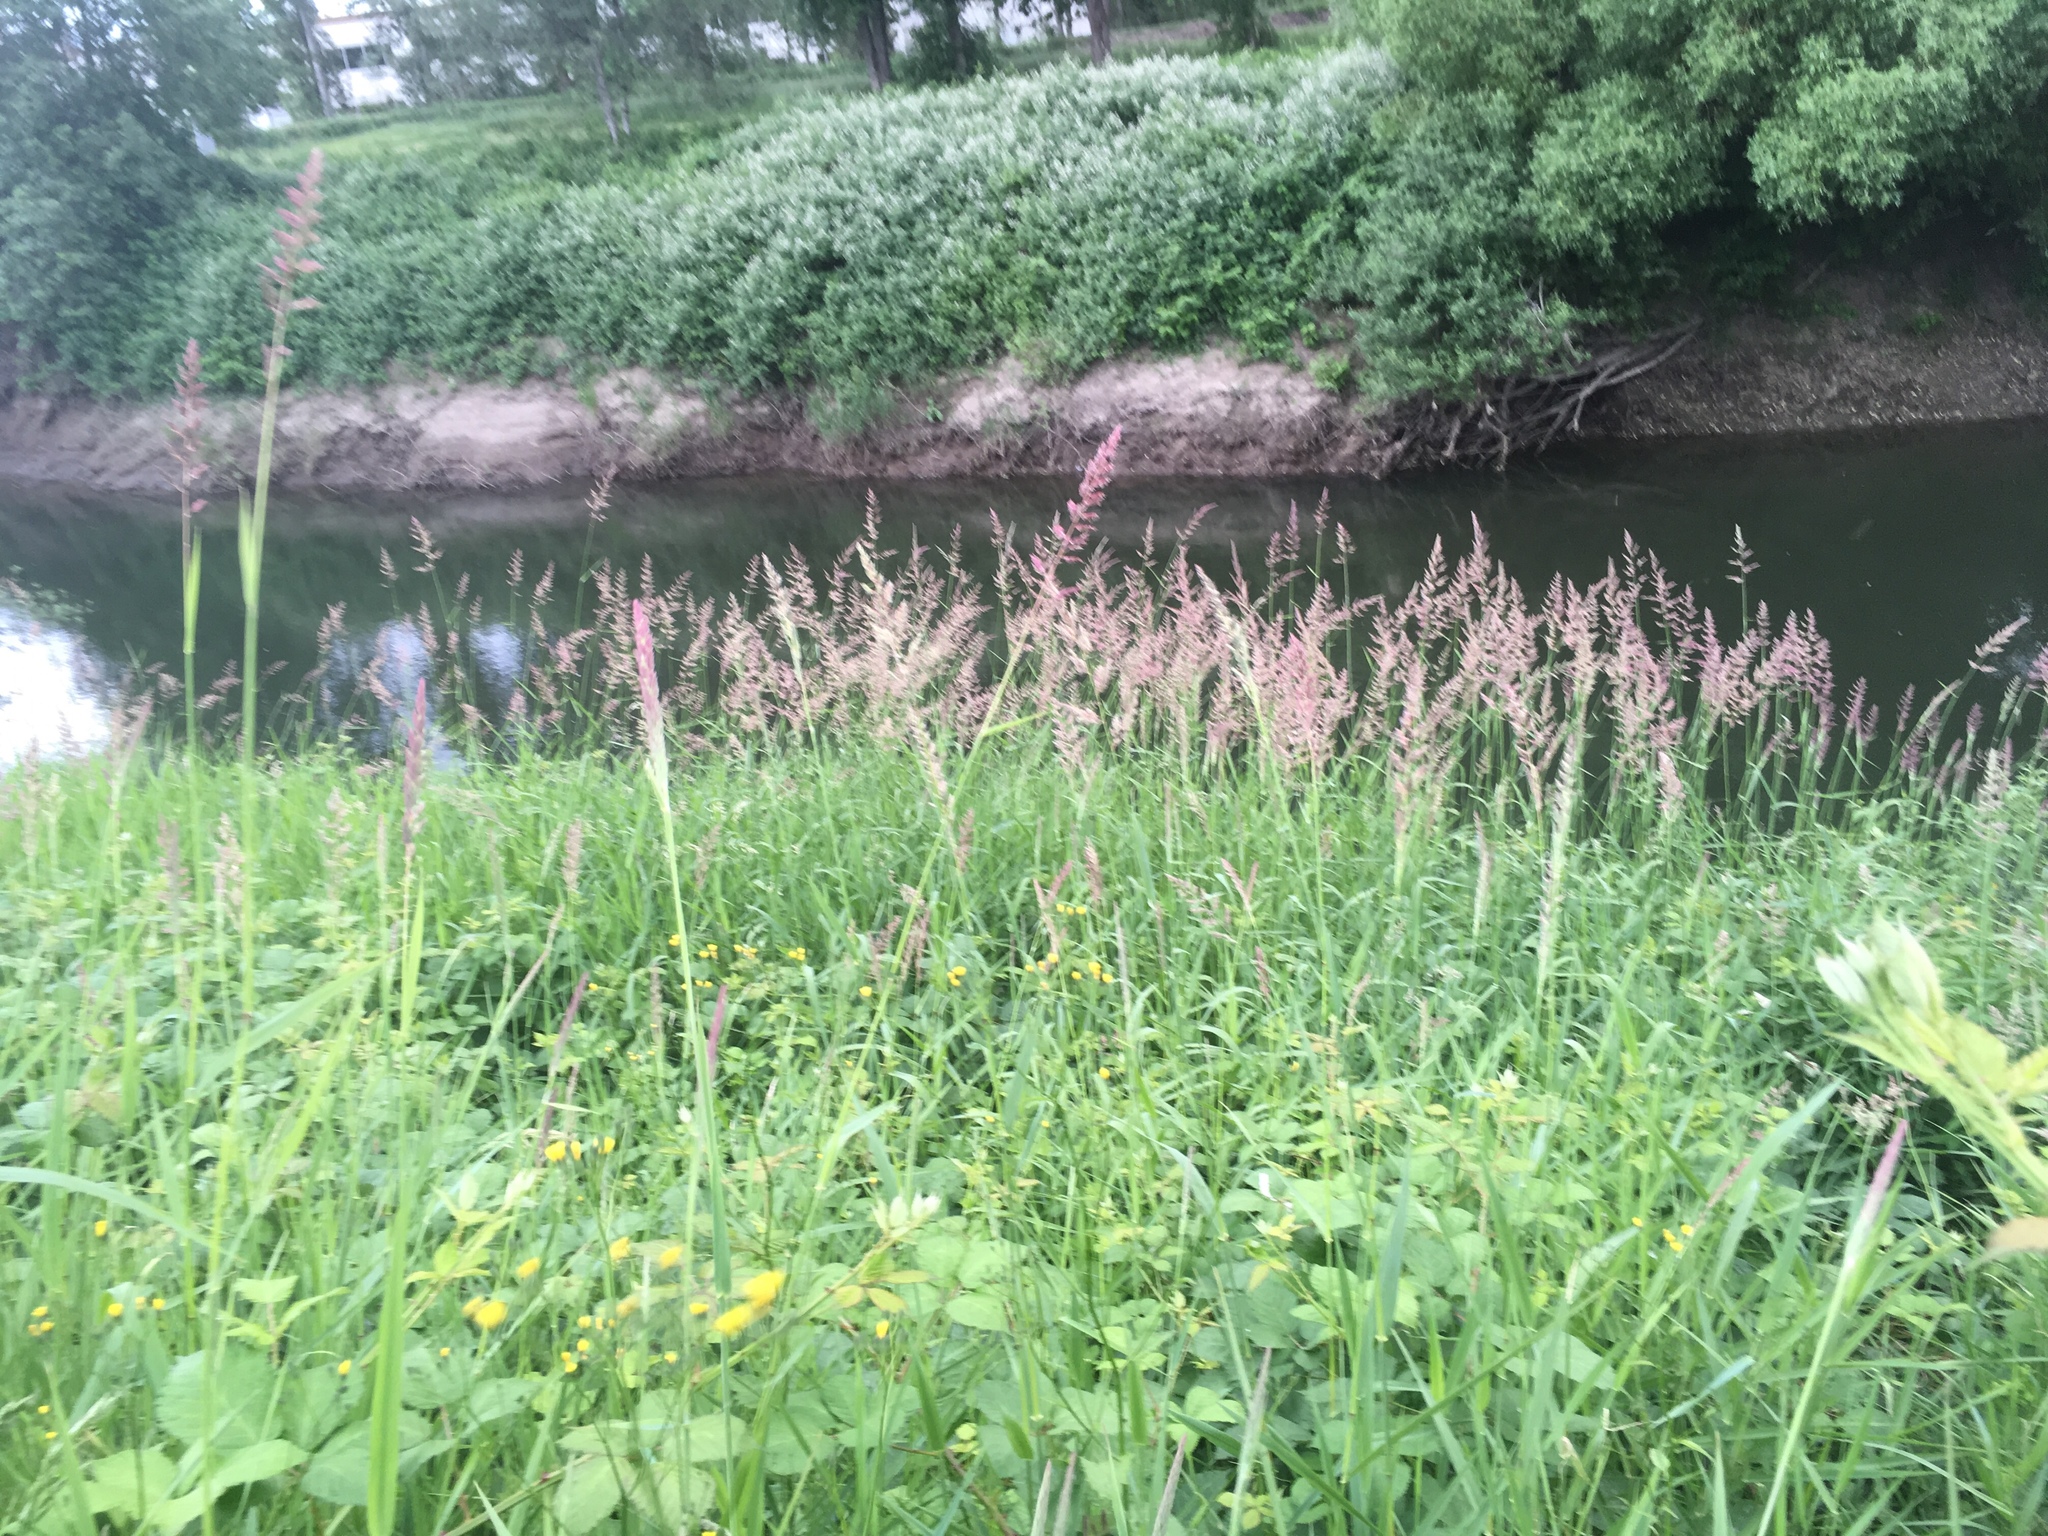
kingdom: Plantae
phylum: Tracheophyta
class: Liliopsida
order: Poales
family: Poaceae
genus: Phalaris
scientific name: Phalaris arundinacea
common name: Reed canary-grass
